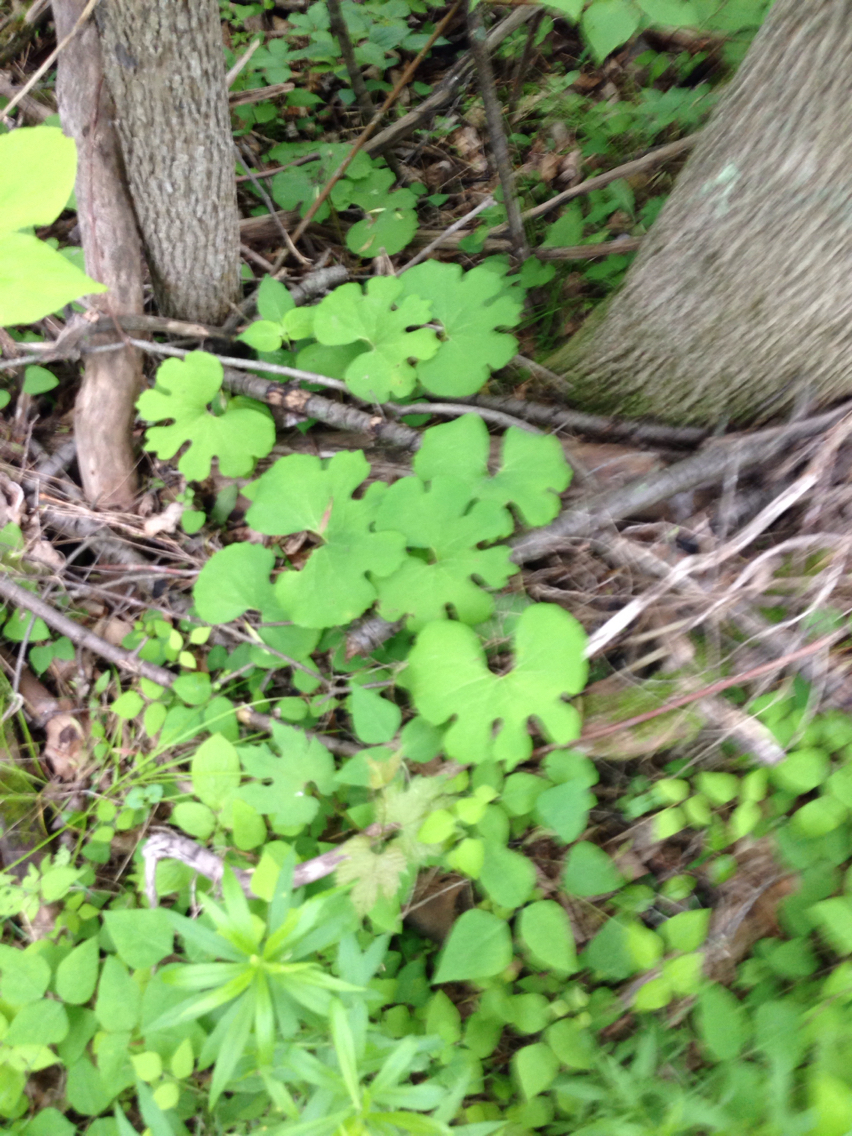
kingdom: Plantae
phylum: Tracheophyta
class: Magnoliopsida
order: Ranunculales
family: Papaveraceae
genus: Sanguinaria
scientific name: Sanguinaria canadensis
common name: Bloodroot
